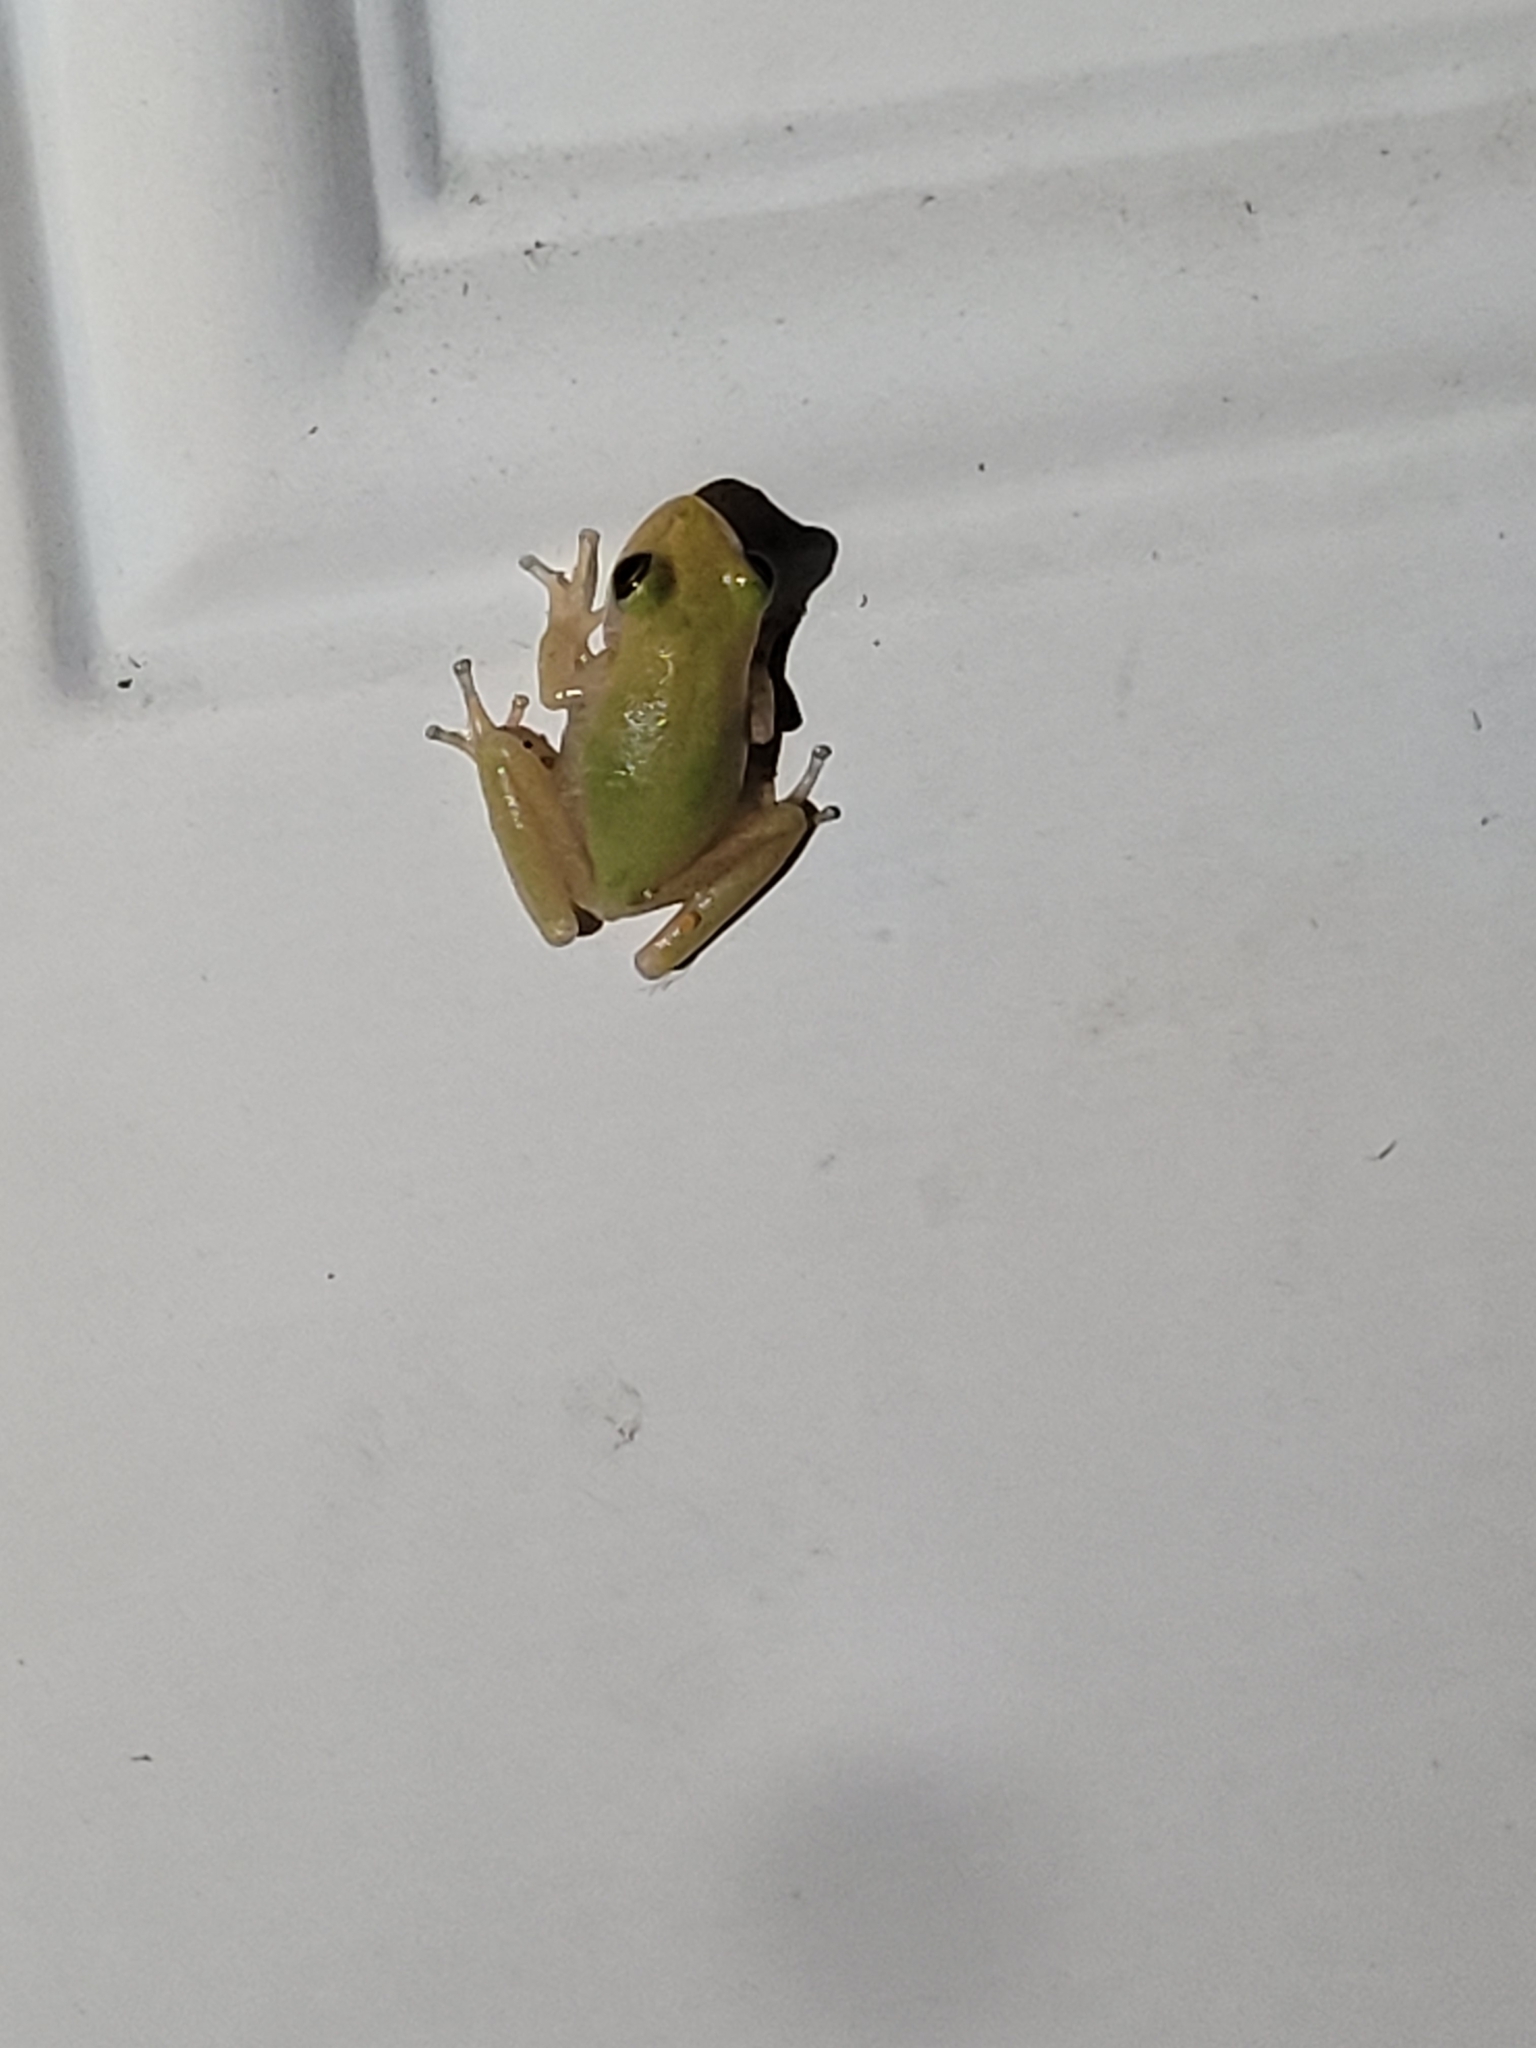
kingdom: Animalia
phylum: Chordata
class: Amphibia
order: Anura
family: Hylidae
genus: Dryophytes
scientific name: Dryophytes squirellus
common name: Squirrel treefrog
